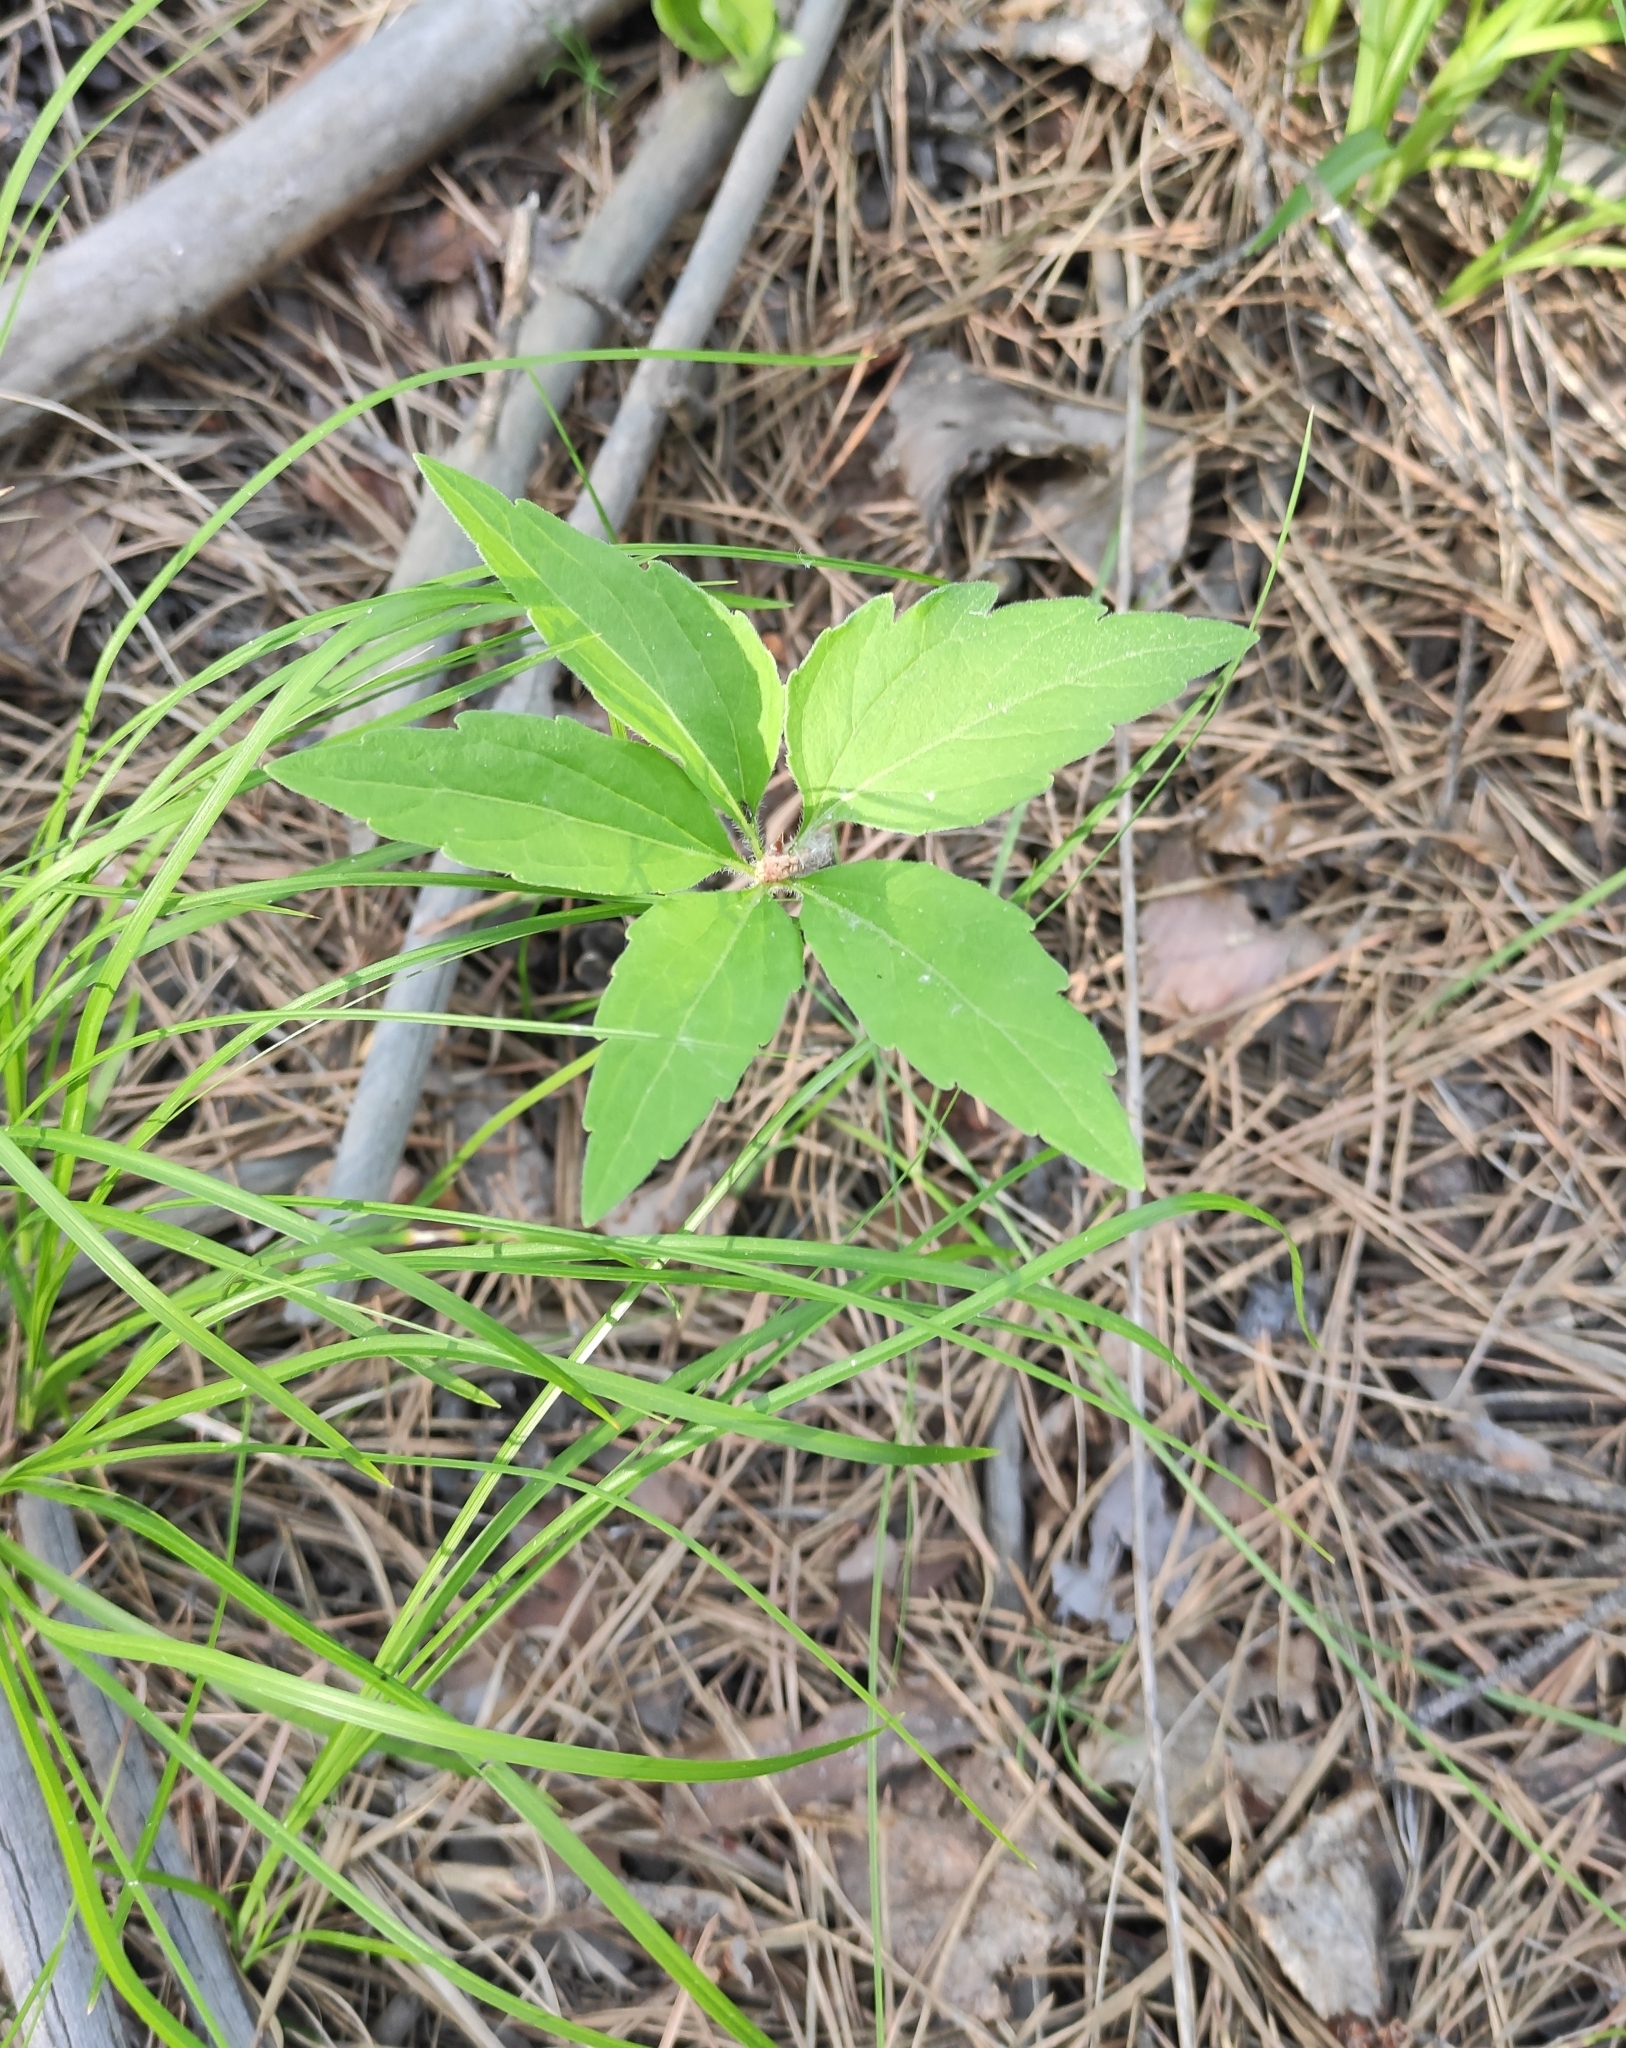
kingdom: Plantae
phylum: Tracheophyta
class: Magnoliopsida
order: Malpighiales
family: Violaceae
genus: Viola
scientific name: Viola dactyloides
